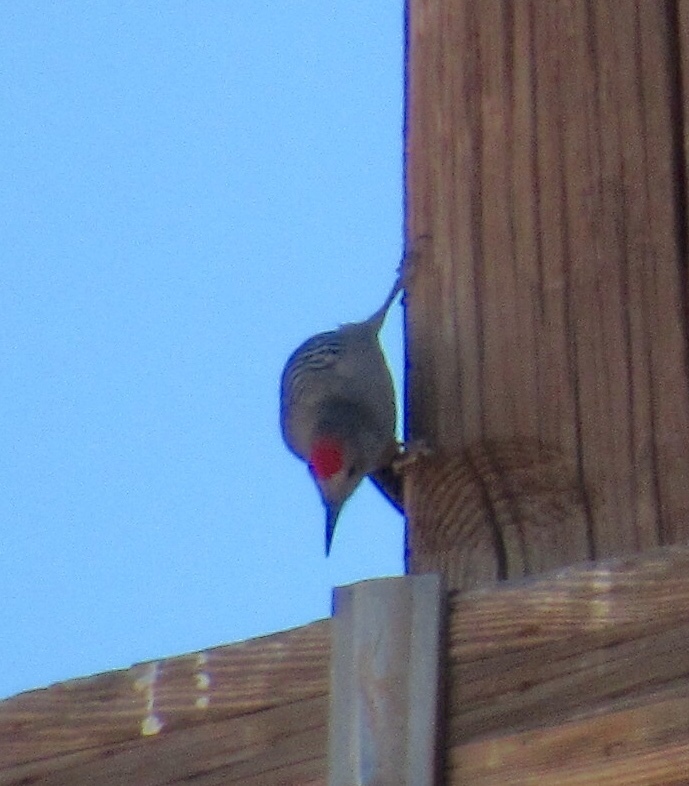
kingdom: Animalia
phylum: Chordata
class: Aves
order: Piciformes
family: Picidae
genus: Melanerpes
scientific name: Melanerpes uropygialis
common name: Gila woodpecker
